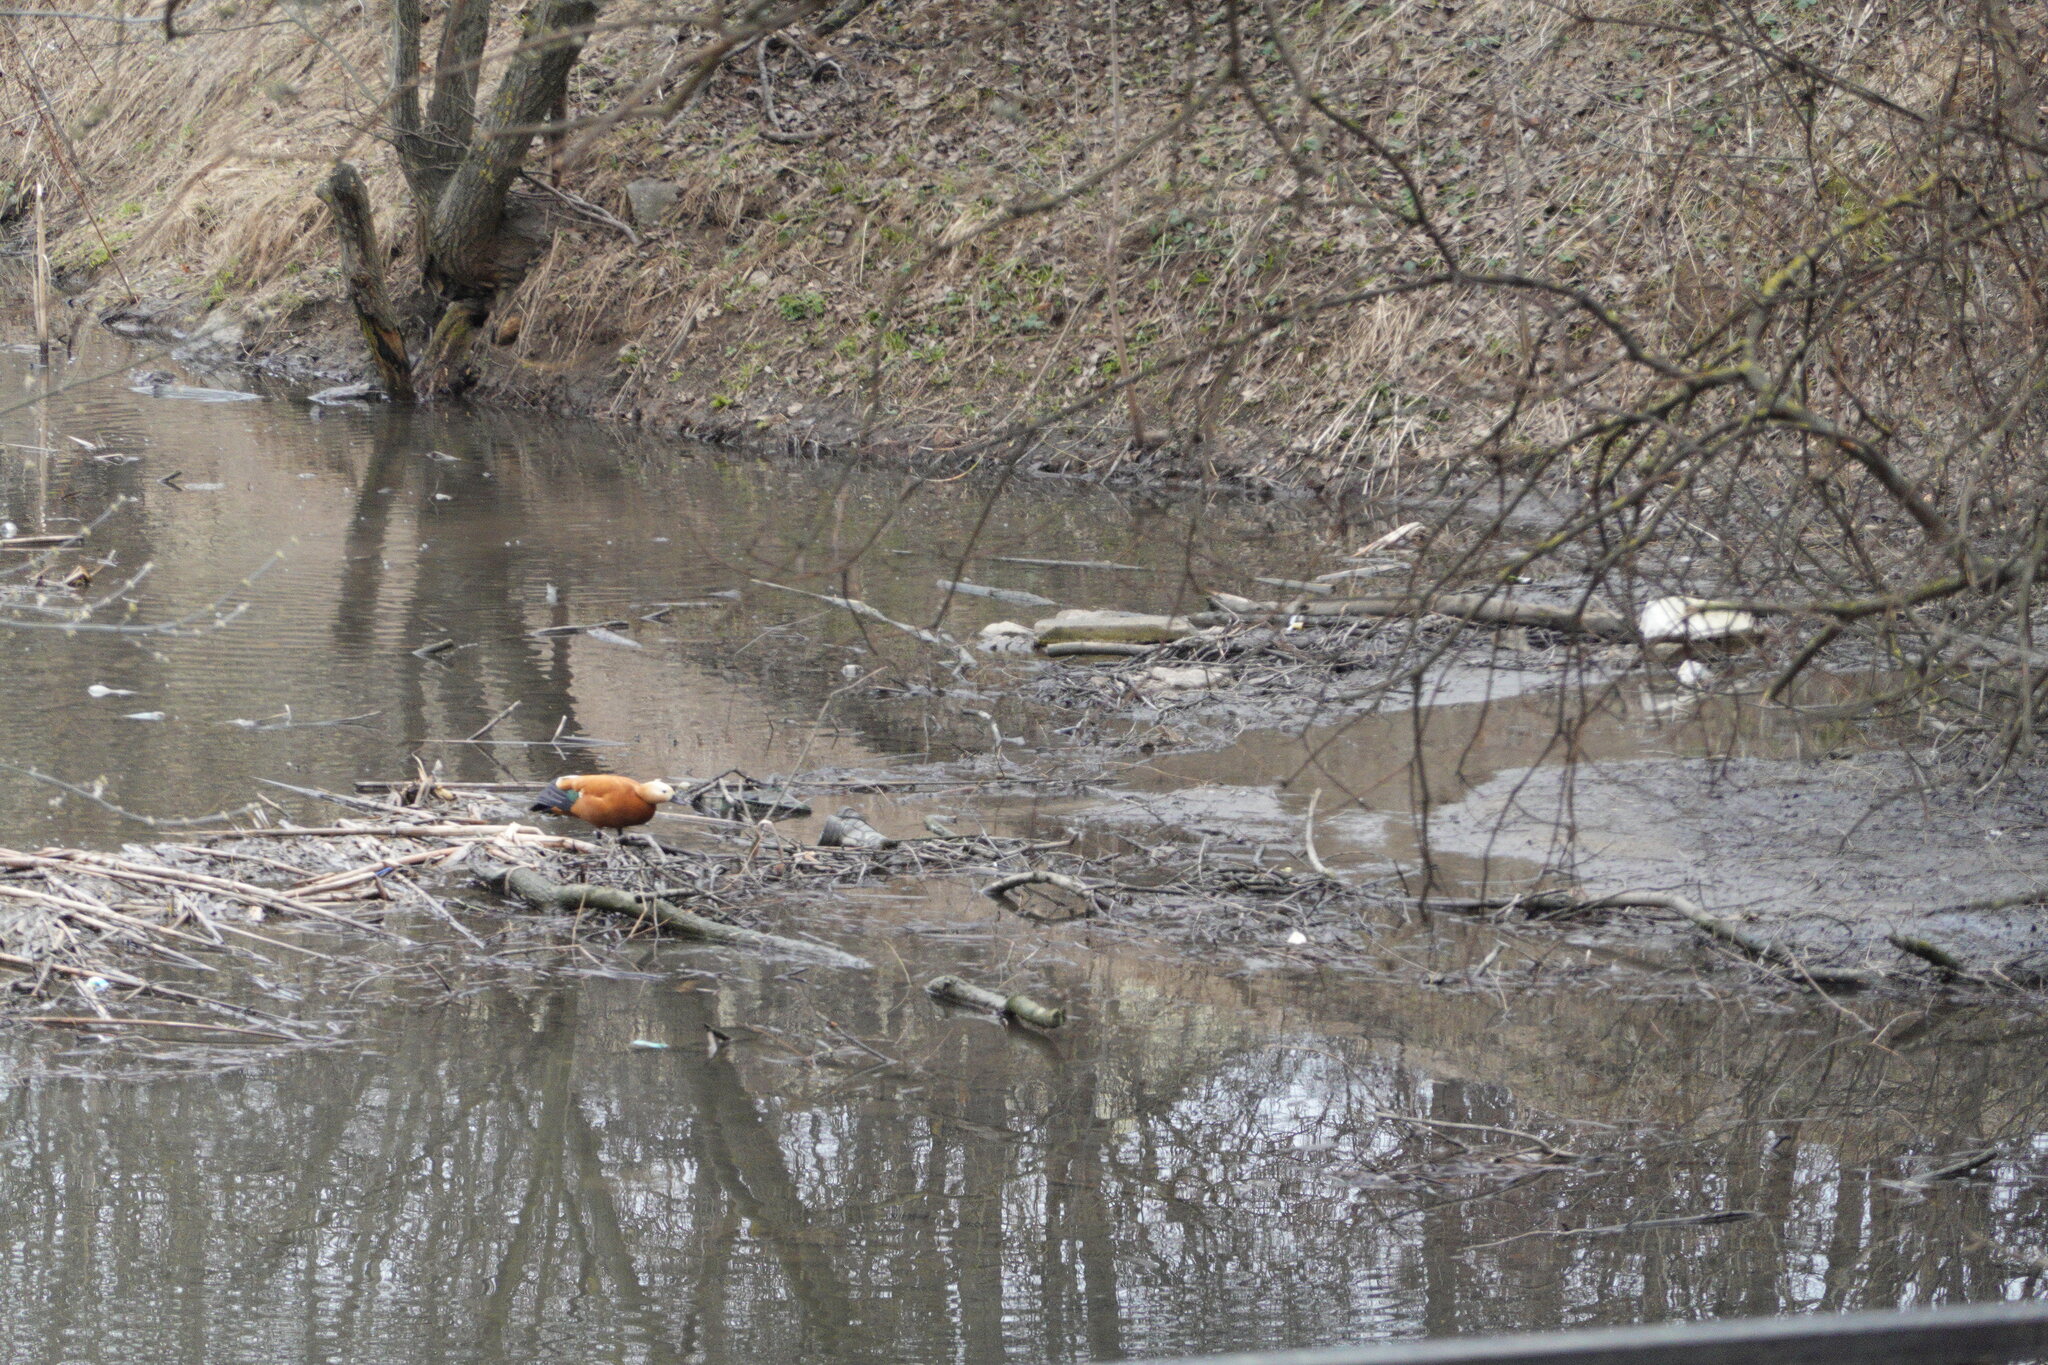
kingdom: Animalia
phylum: Chordata
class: Aves
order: Anseriformes
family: Anatidae
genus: Tadorna
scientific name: Tadorna ferruginea
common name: Ruddy shelduck
